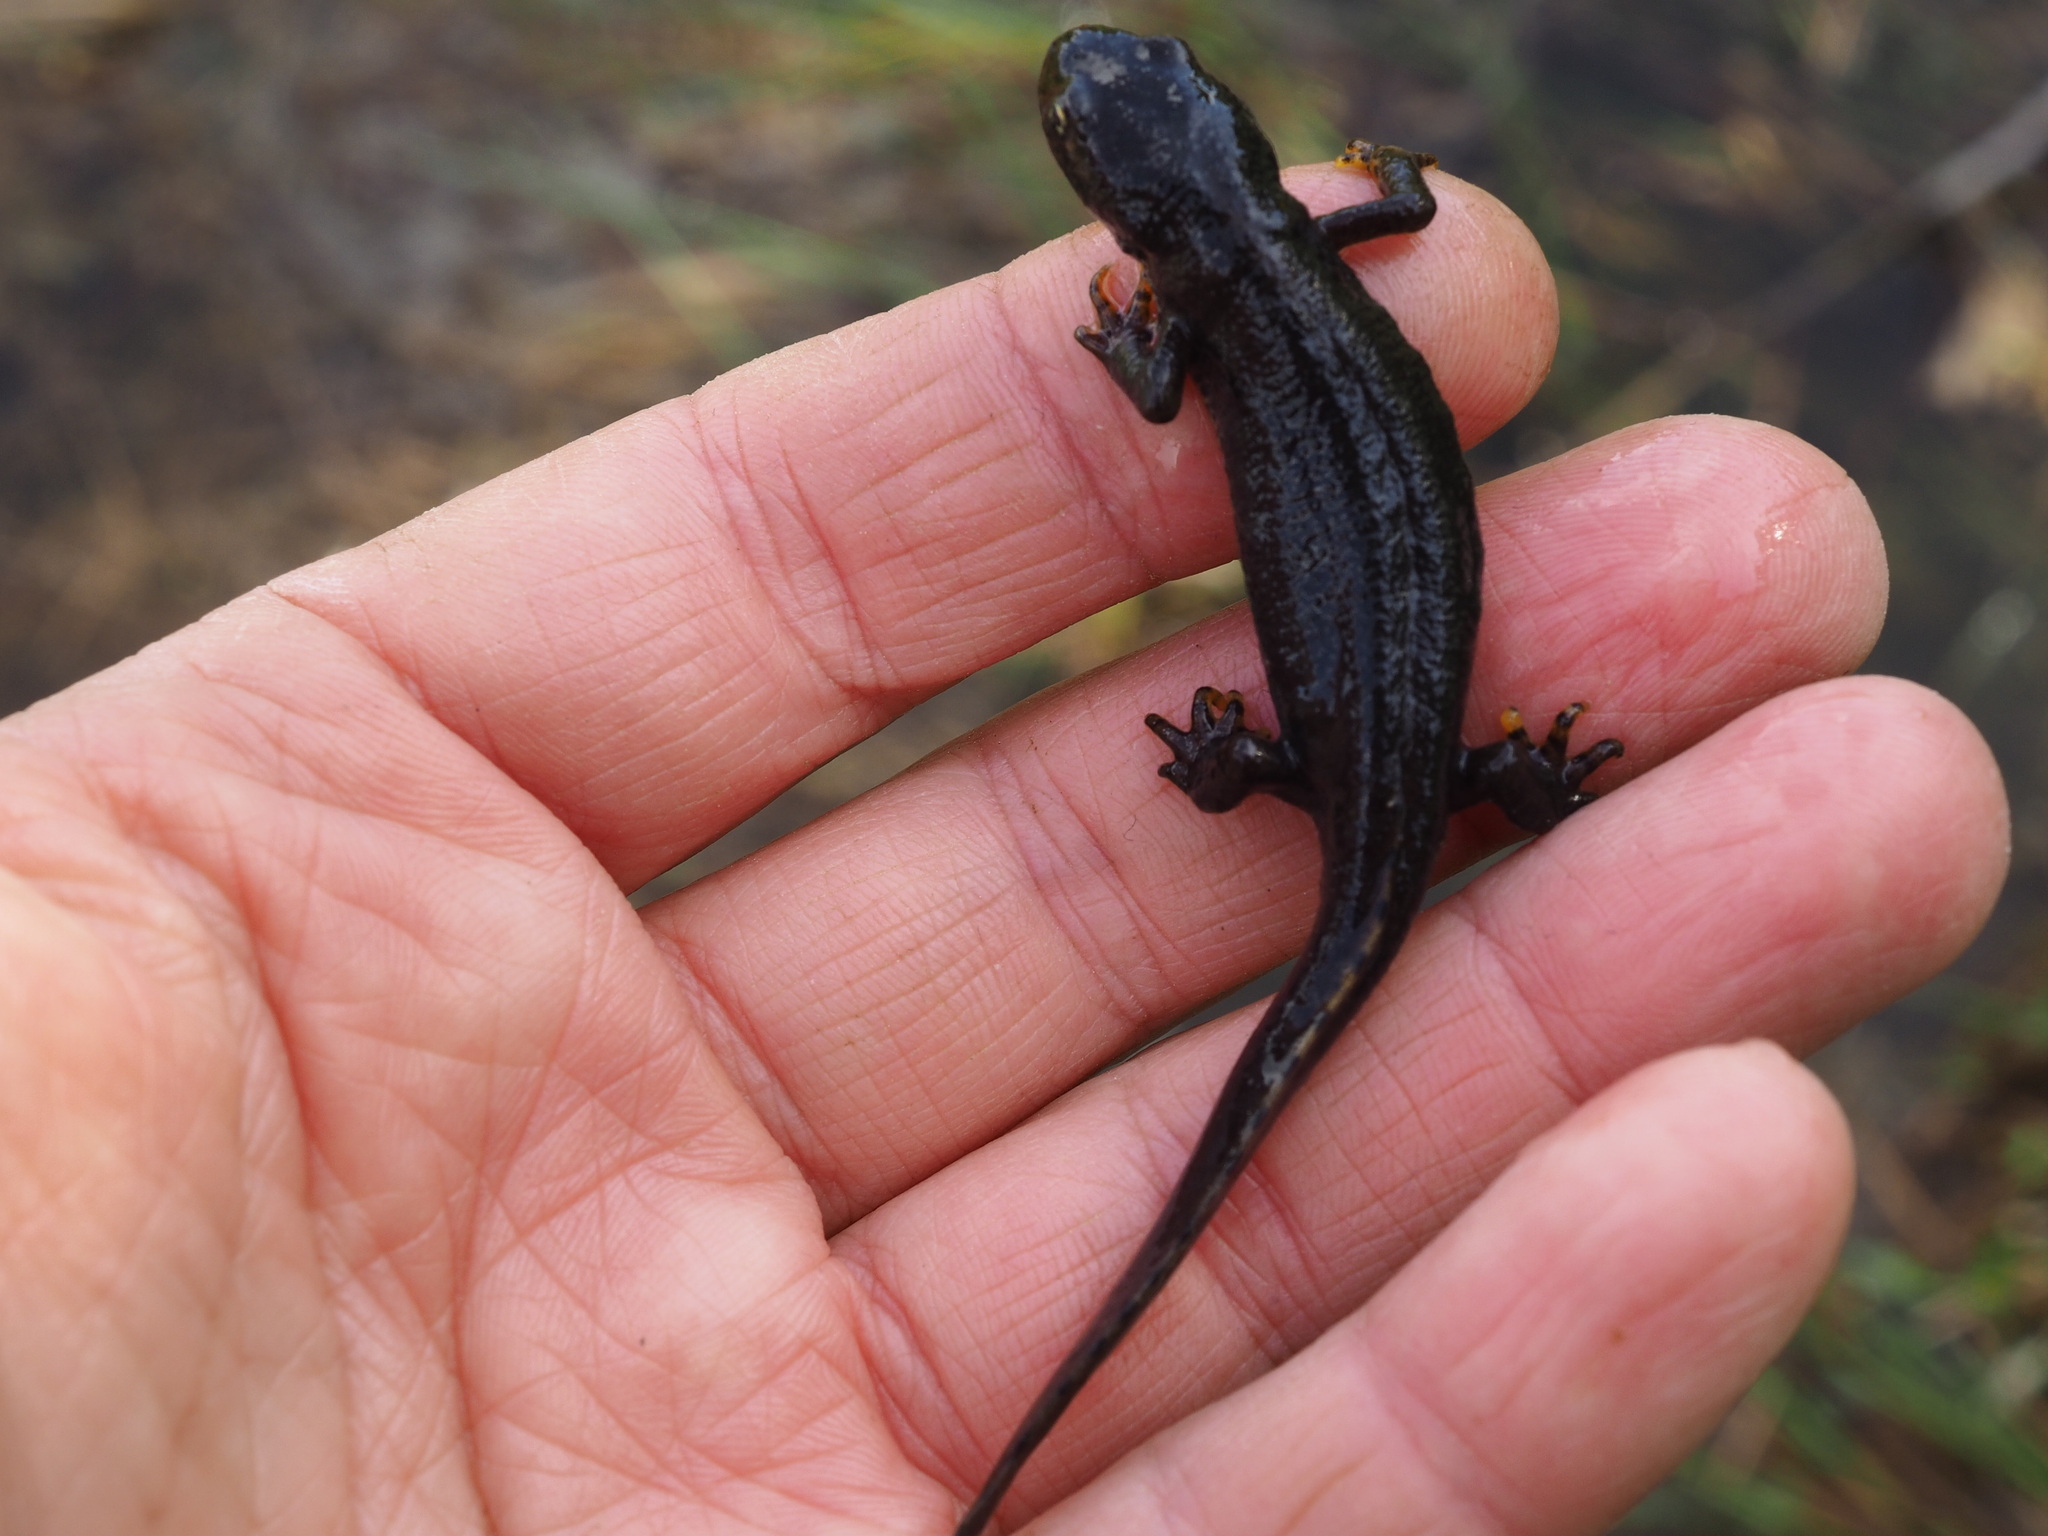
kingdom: Animalia
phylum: Chordata
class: Amphibia
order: Caudata
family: Salamandridae
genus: Ichthyosaura
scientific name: Ichthyosaura alpestris
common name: Alpine newt
